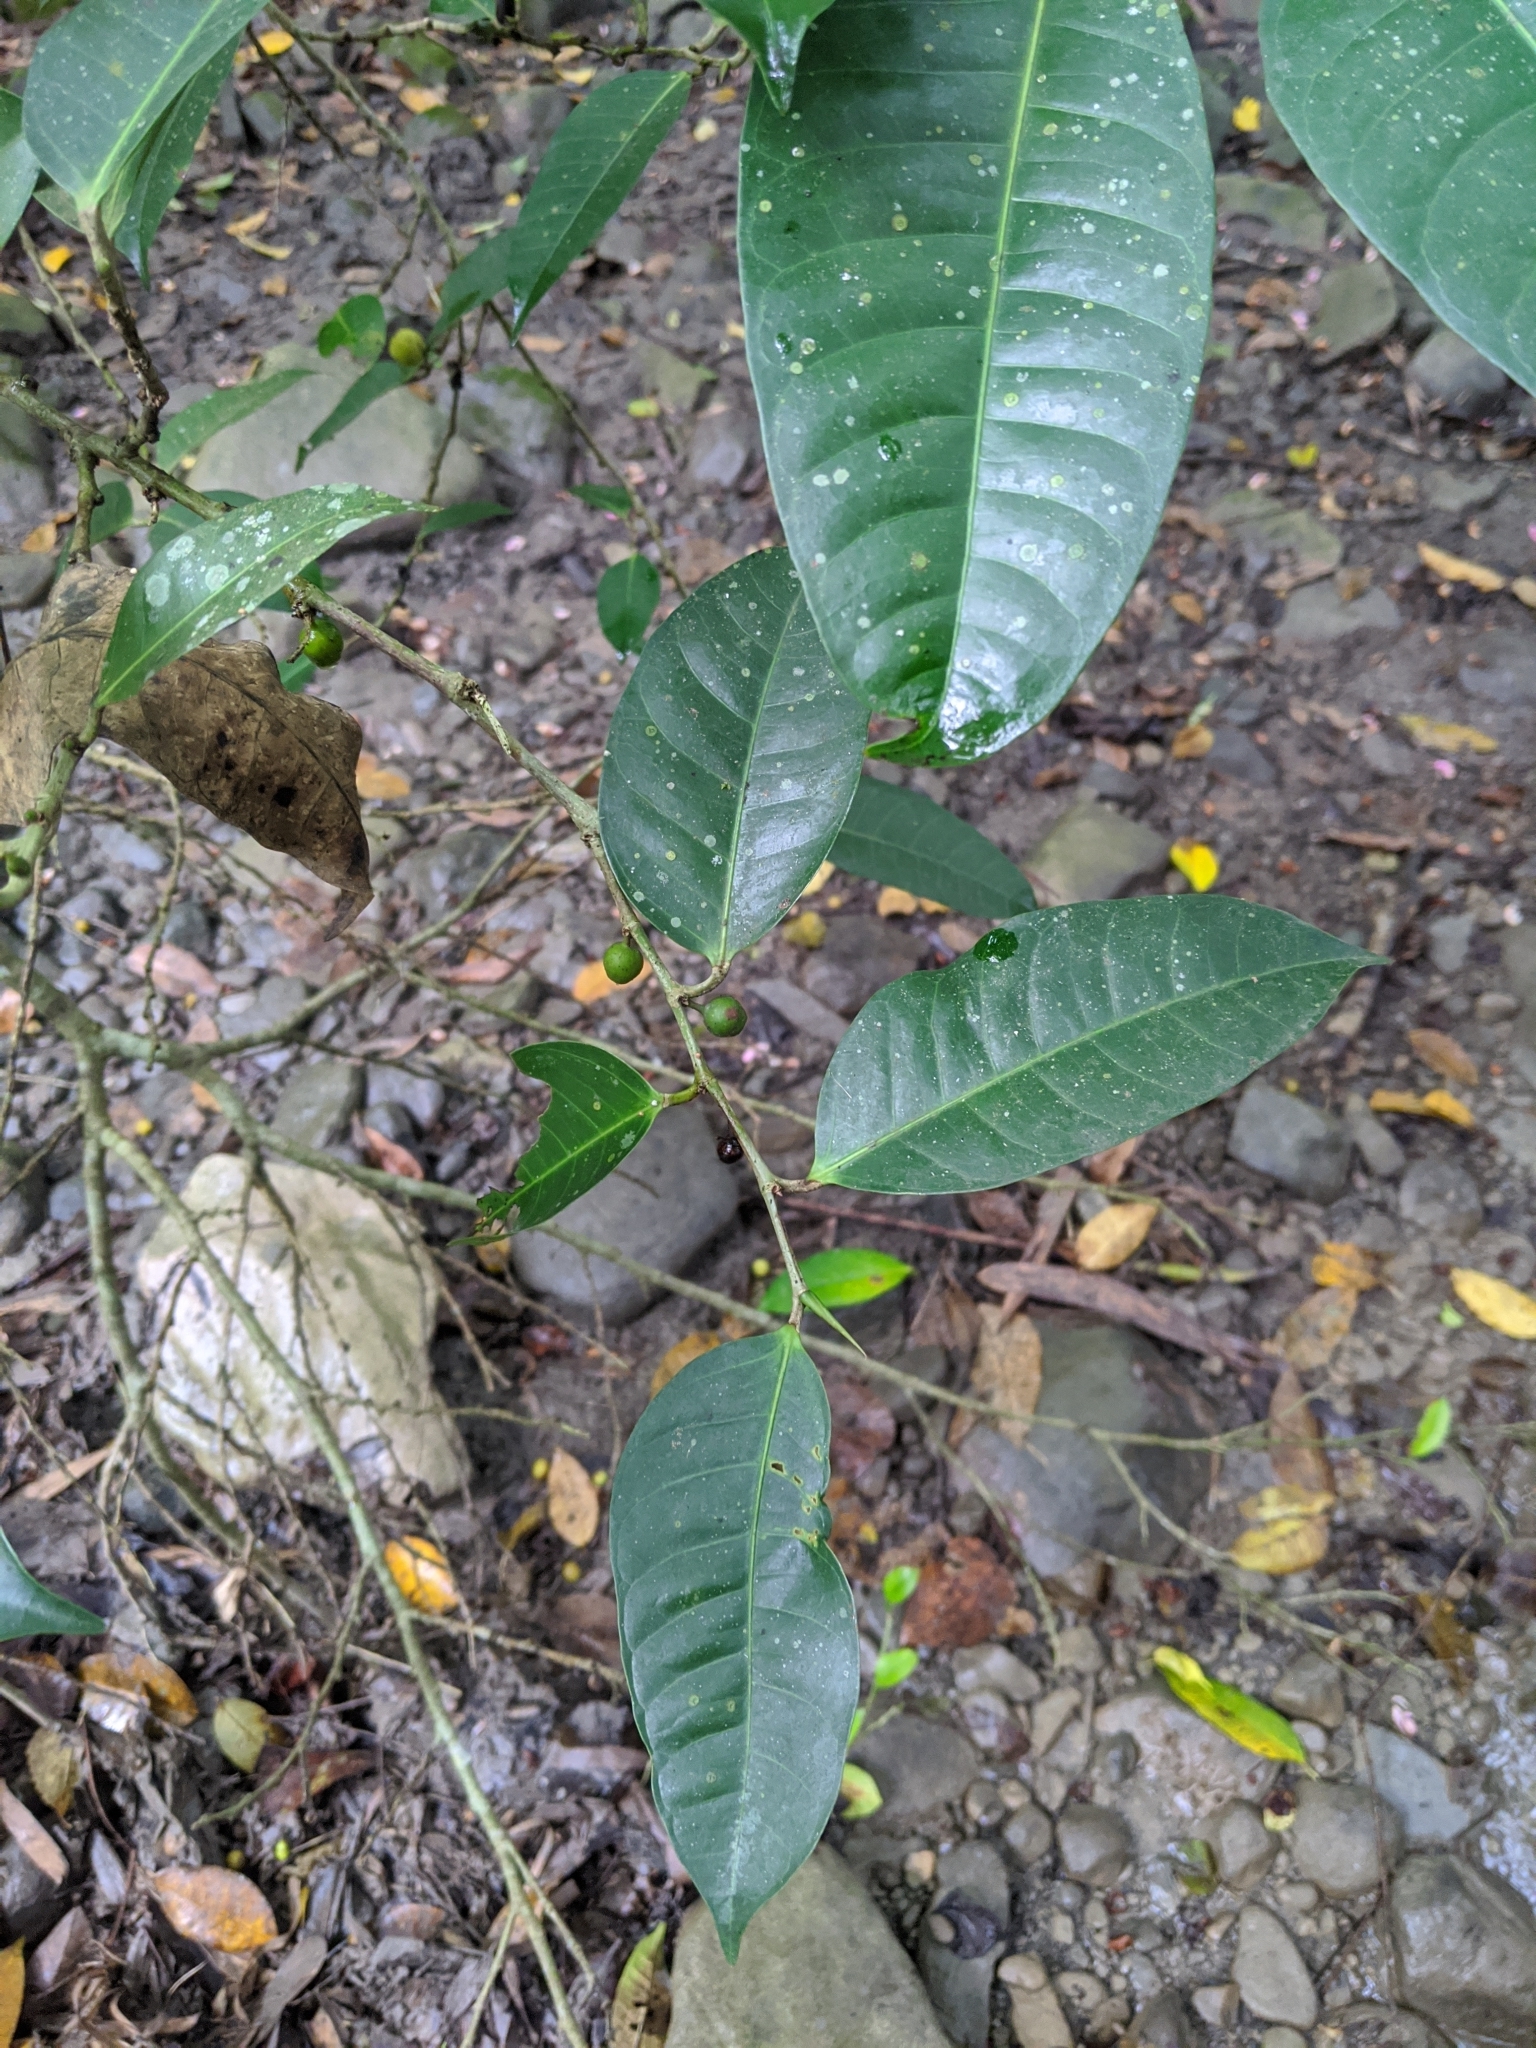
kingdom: Plantae
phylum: Tracheophyta
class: Magnoliopsida
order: Rosales
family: Moraceae
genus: Ficus
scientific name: Ficus virgata
